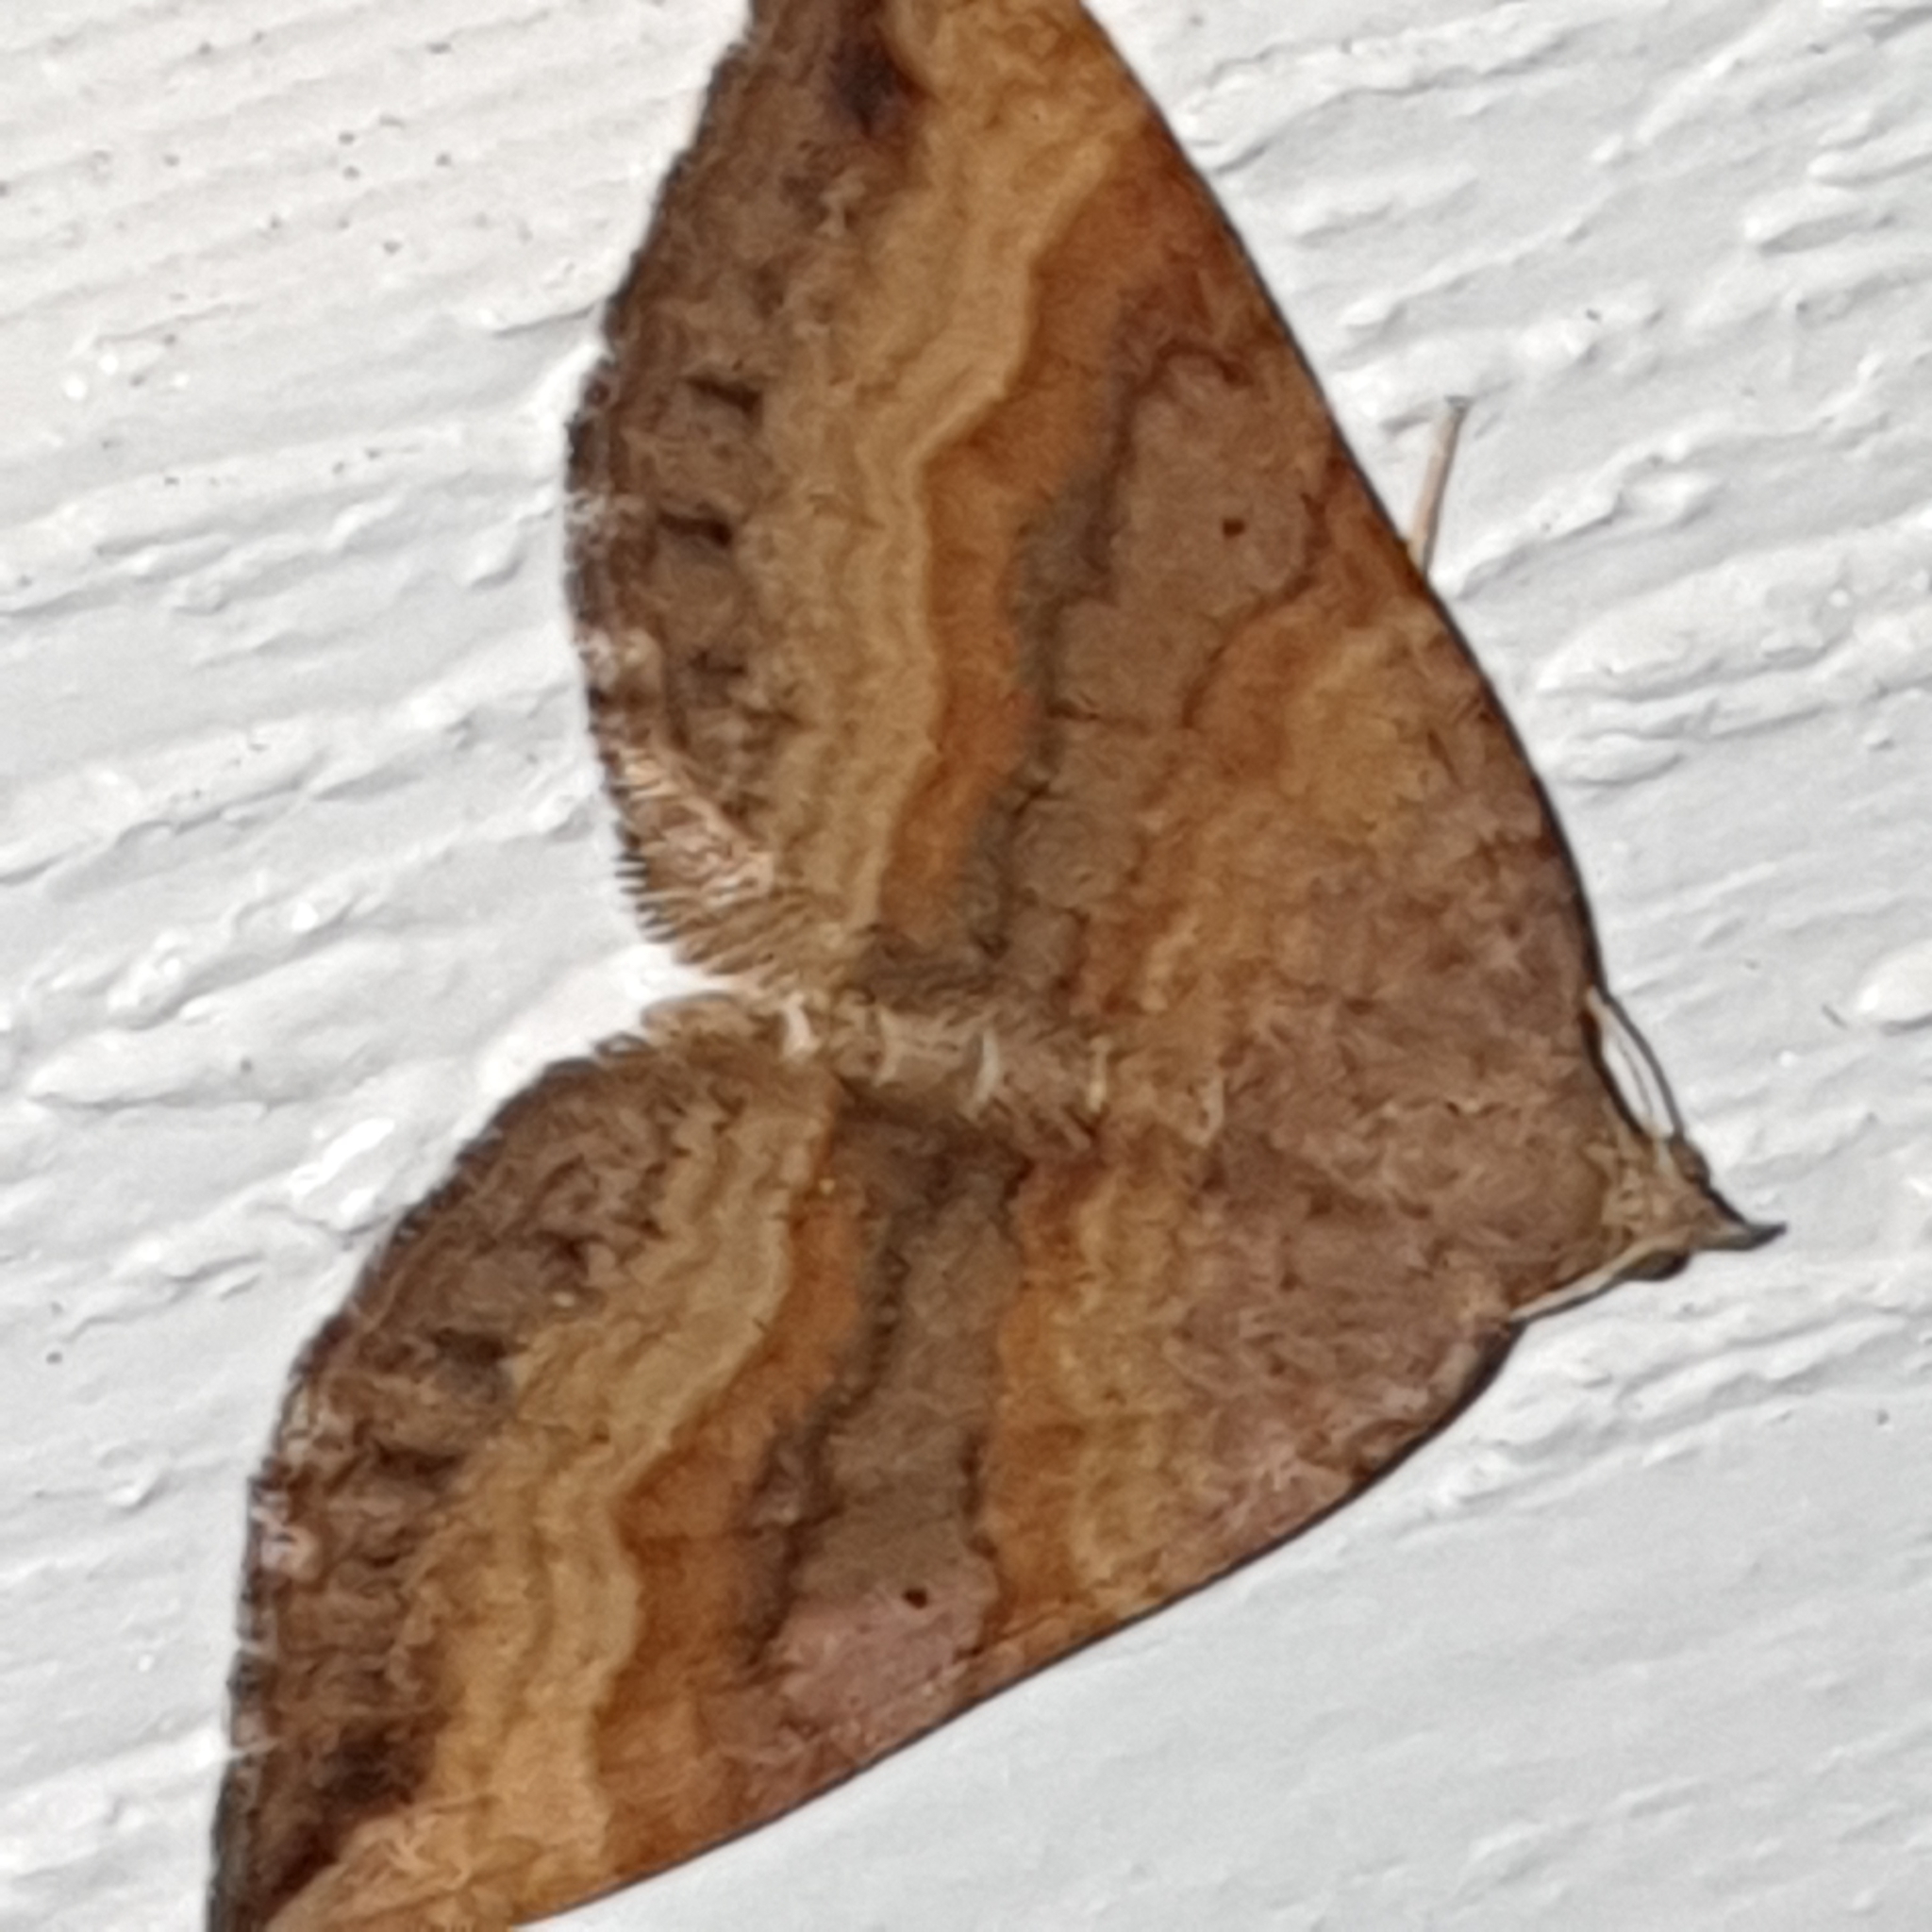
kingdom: Animalia
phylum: Arthropoda
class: Insecta
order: Lepidoptera
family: Geometridae
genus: Scotopteryx
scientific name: Scotopteryx chenopodiata
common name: Shaded broad-bar
